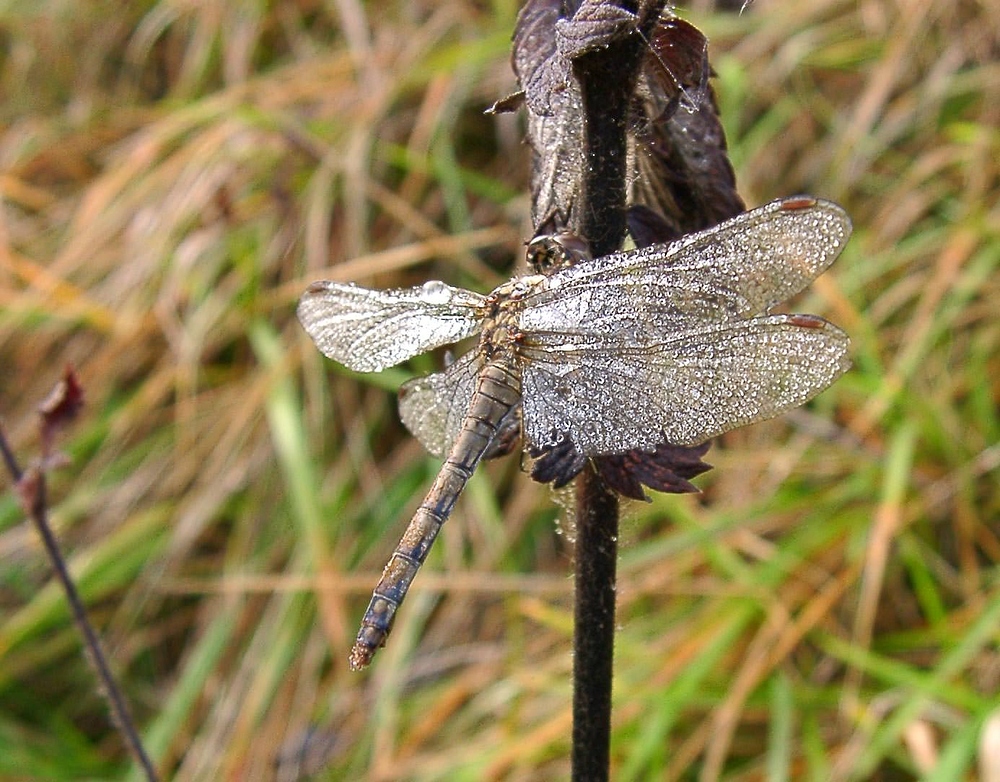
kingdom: Animalia
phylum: Arthropoda
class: Insecta
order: Odonata
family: Libellulidae
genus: Sympetrum
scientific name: Sympetrum striolatum
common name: Common darter
